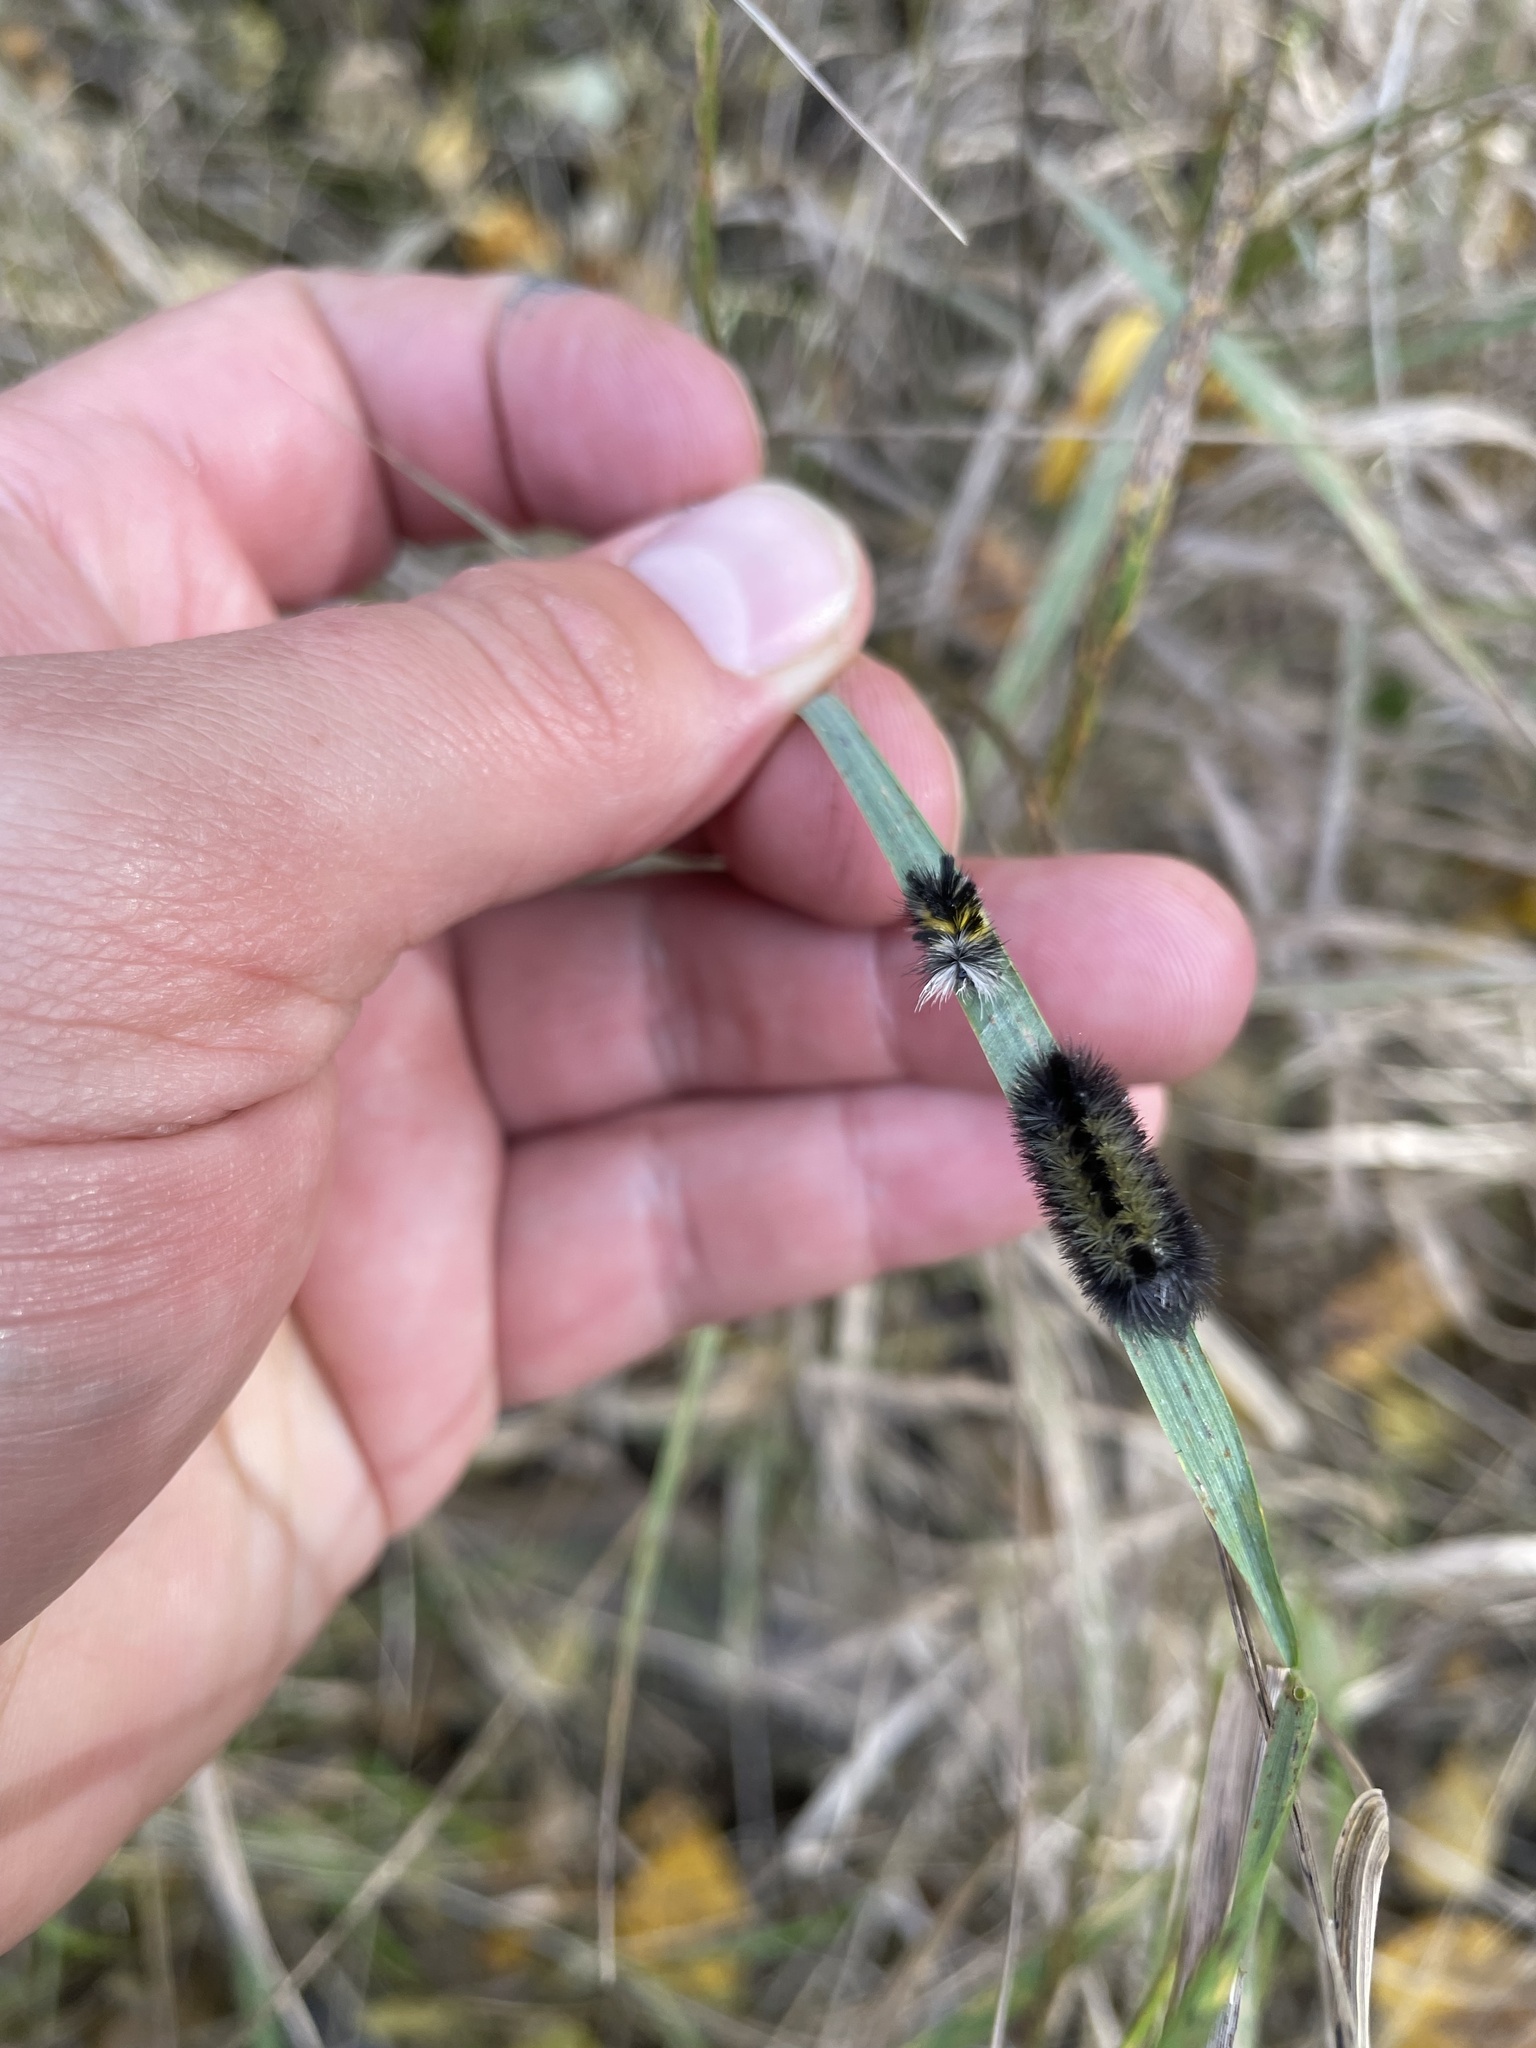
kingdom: Animalia
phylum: Arthropoda
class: Insecta
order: Lepidoptera
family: Erebidae
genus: Ctenucha
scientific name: Ctenucha virginica
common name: Virginia ctenucha moth
